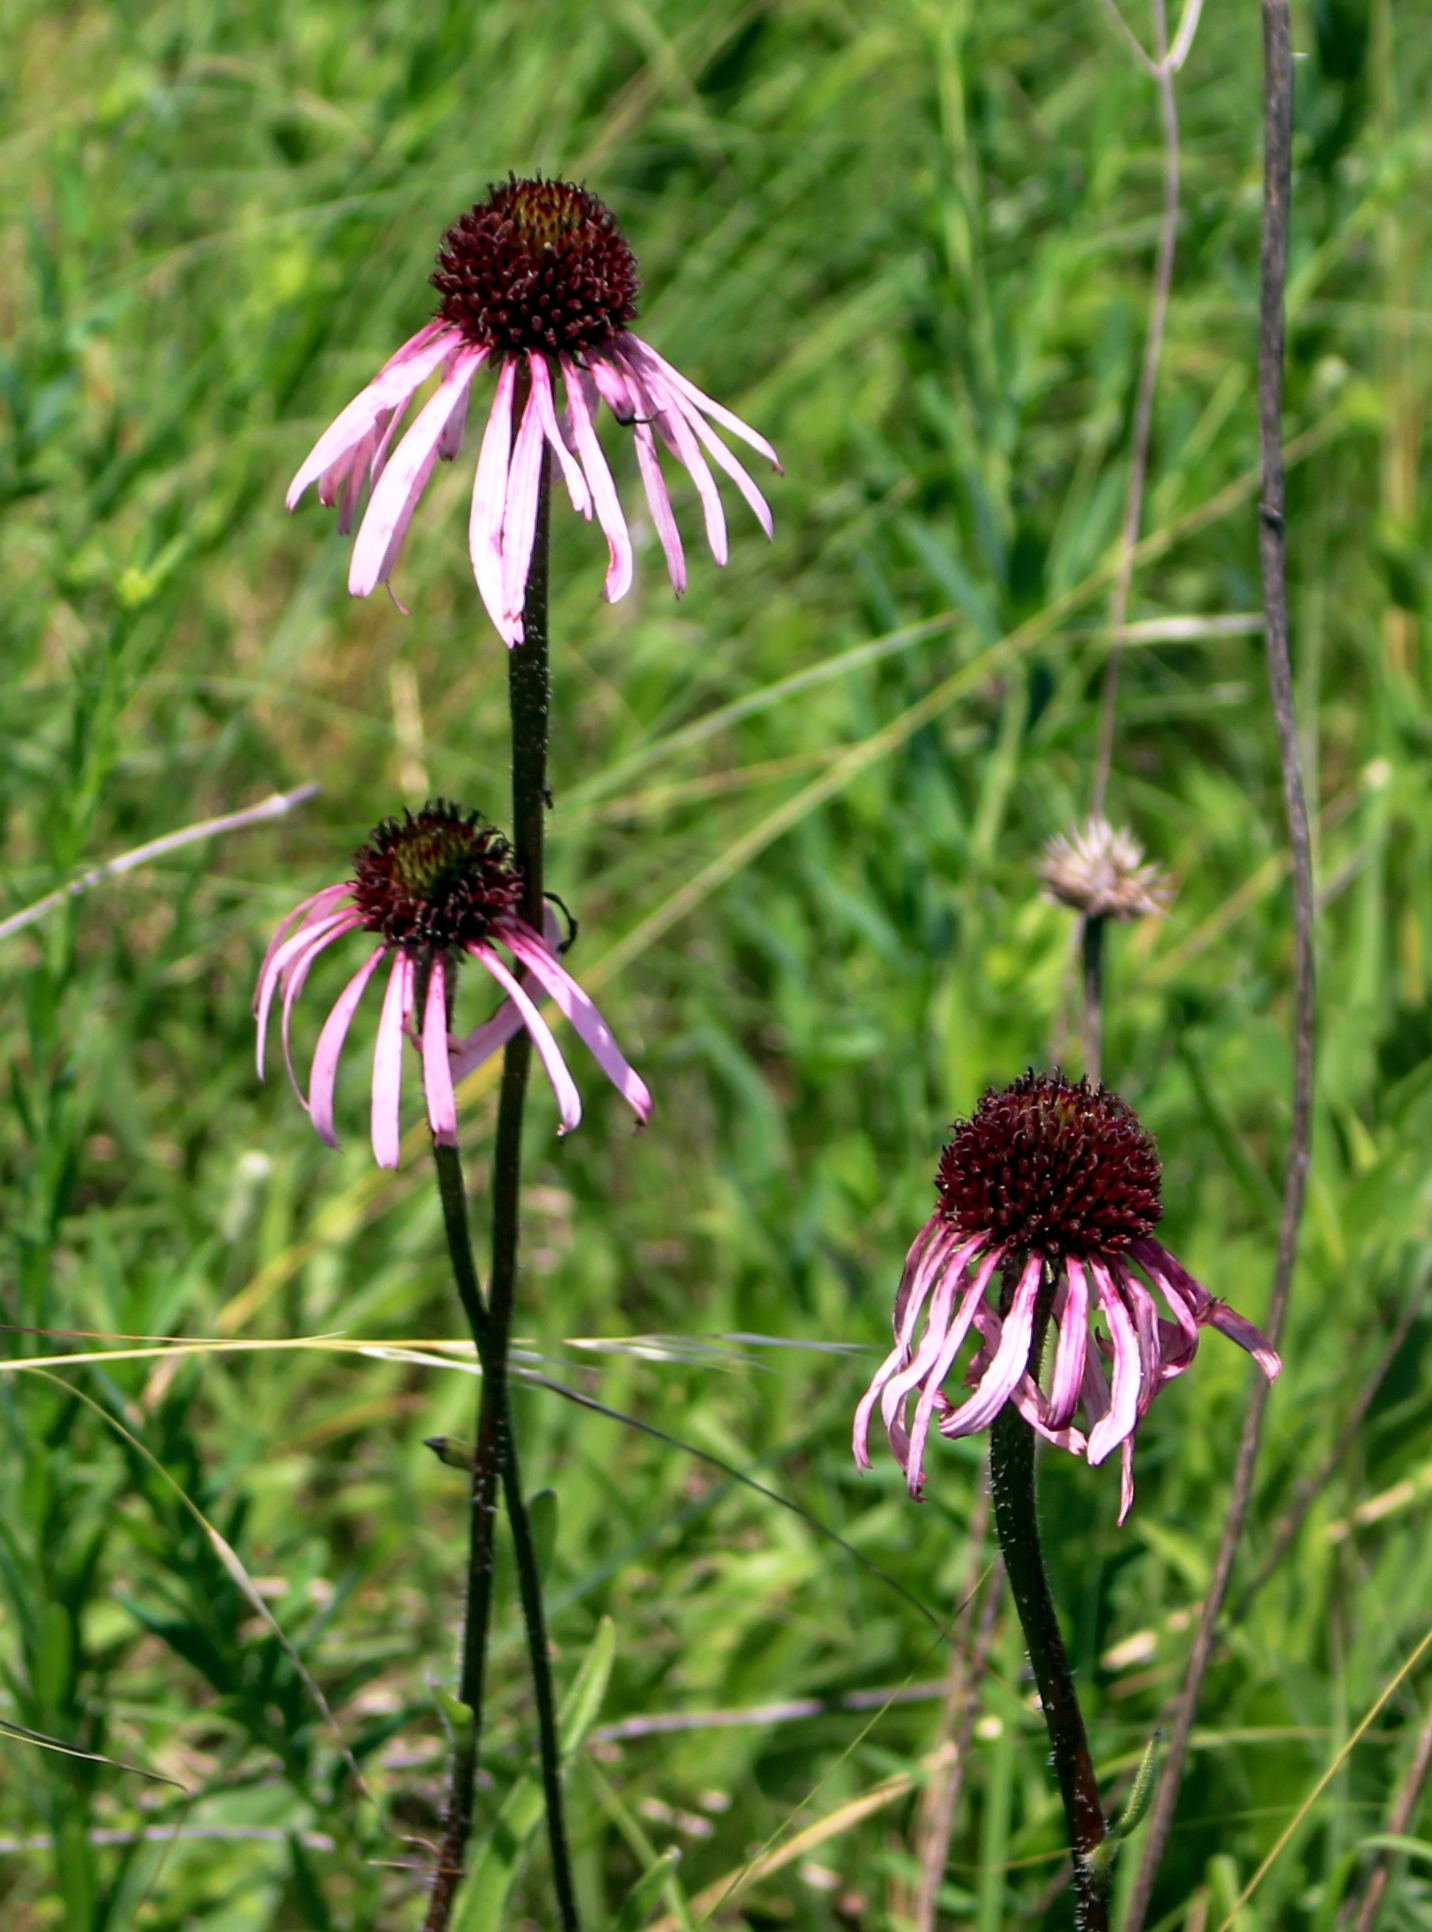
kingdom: Plantae
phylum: Tracheophyta
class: Magnoliopsida
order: Asterales
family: Asteraceae
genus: Echinacea
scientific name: Echinacea pallida
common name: Pale echinacea
